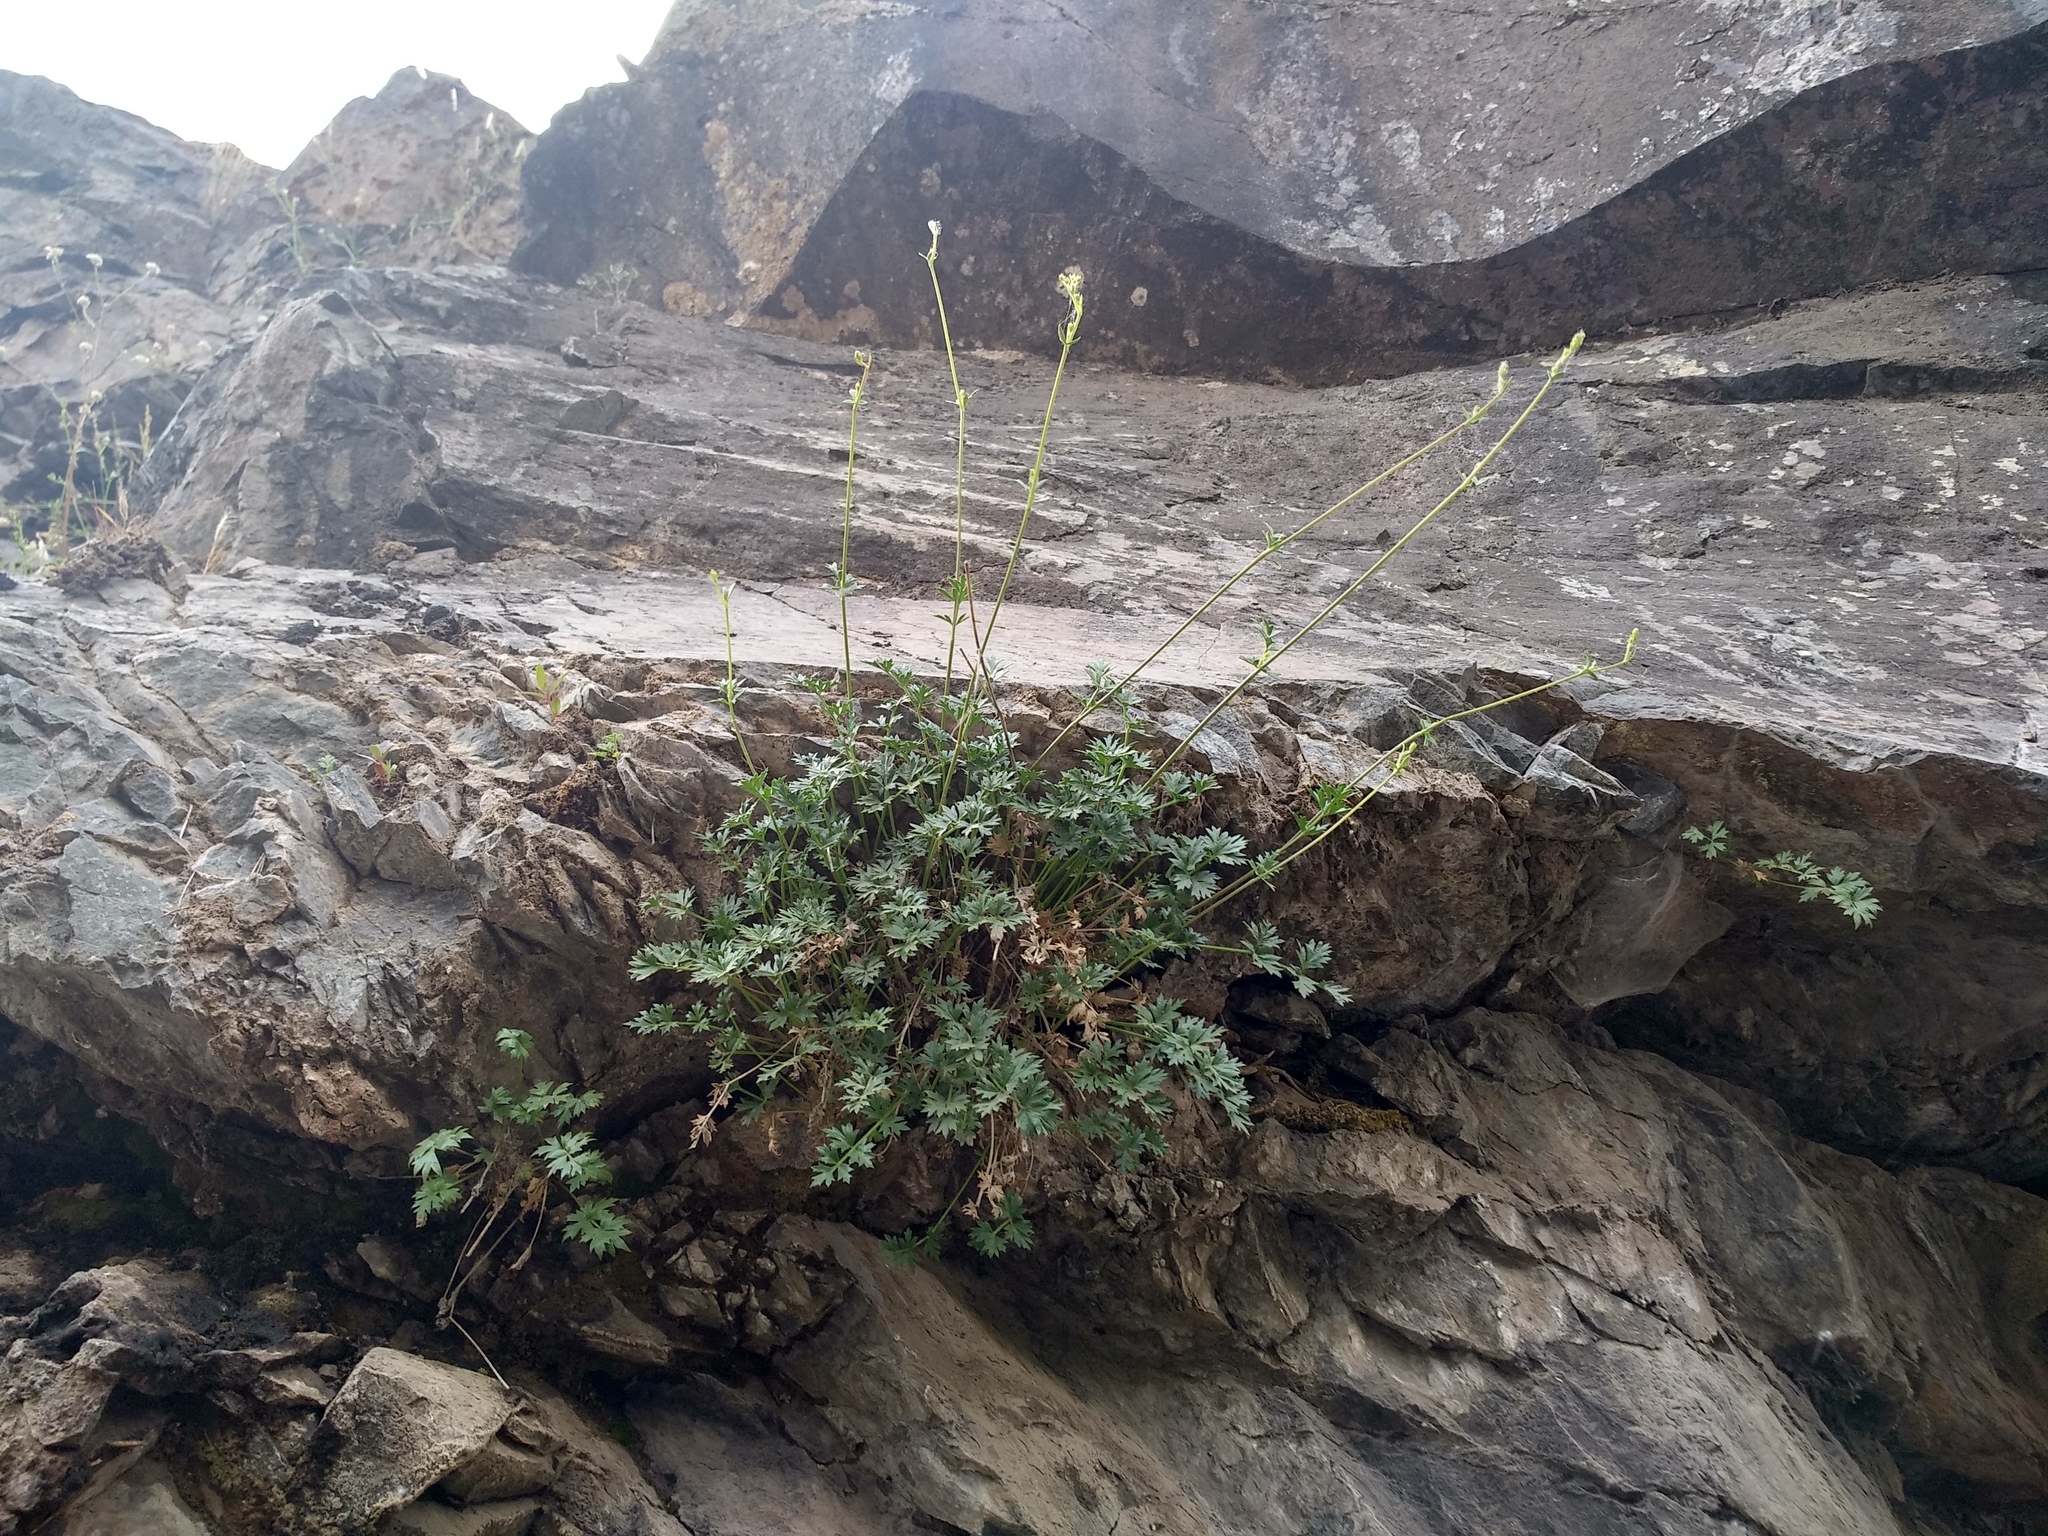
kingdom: Plantae
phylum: Tracheophyta
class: Magnoliopsida
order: Apiales
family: Apiaceae
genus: Seseli
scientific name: Seseli olivieri
